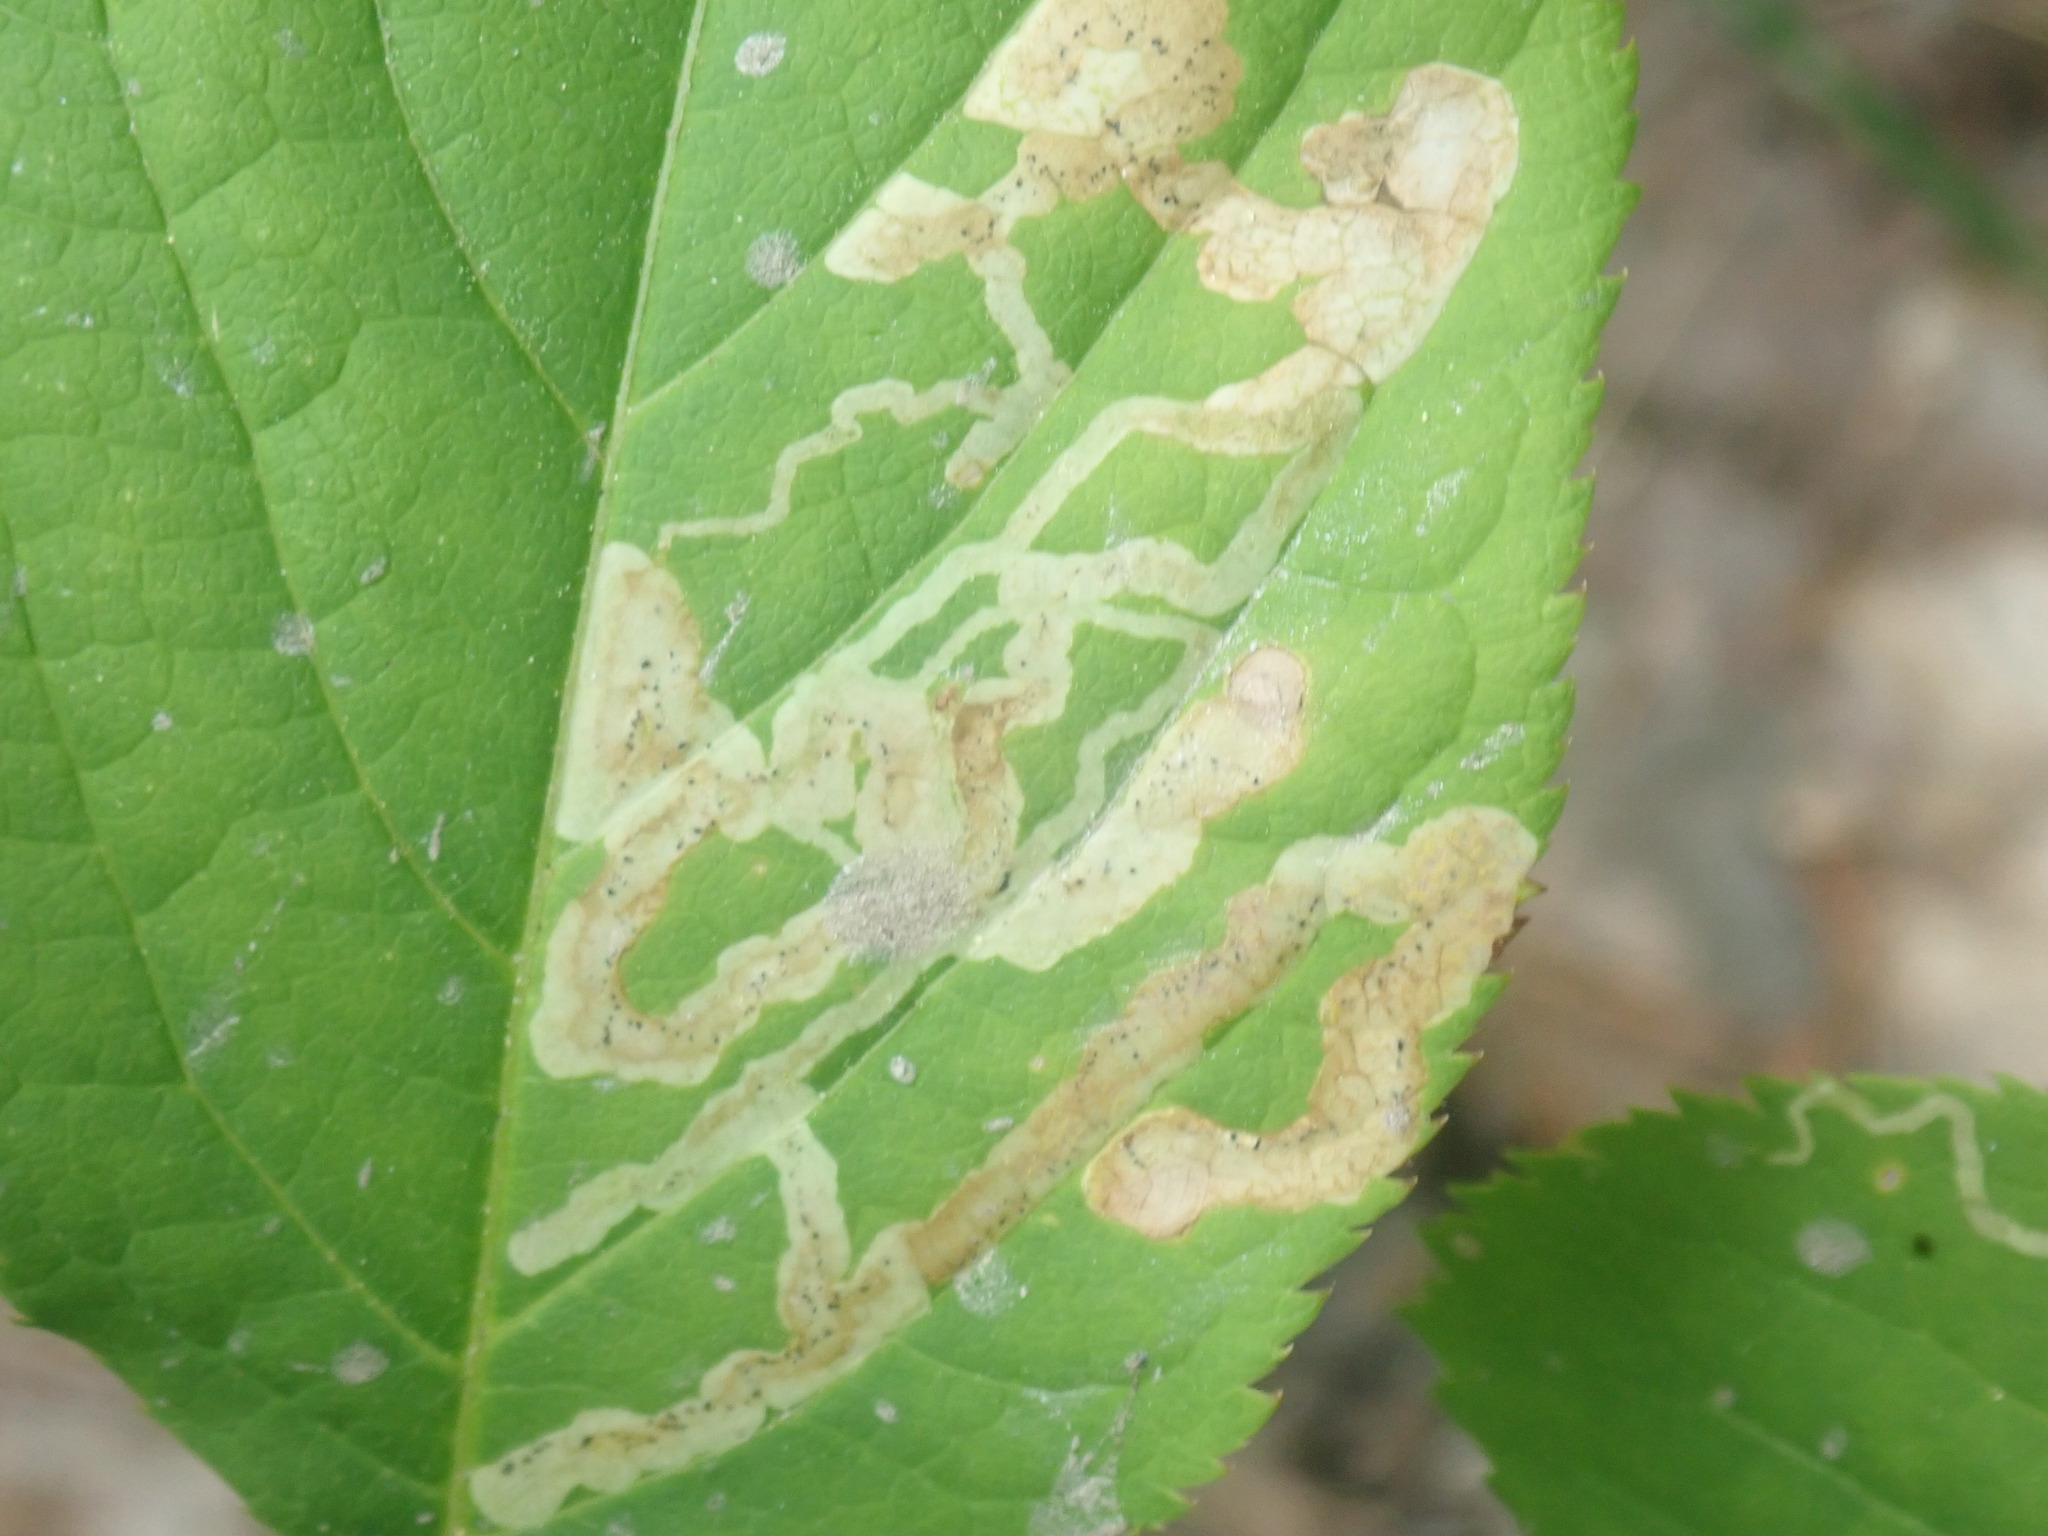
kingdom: Animalia
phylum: Arthropoda
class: Insecta
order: Diptera
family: Agromyzidae
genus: Phytomyza
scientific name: Phytomyza aralivora
